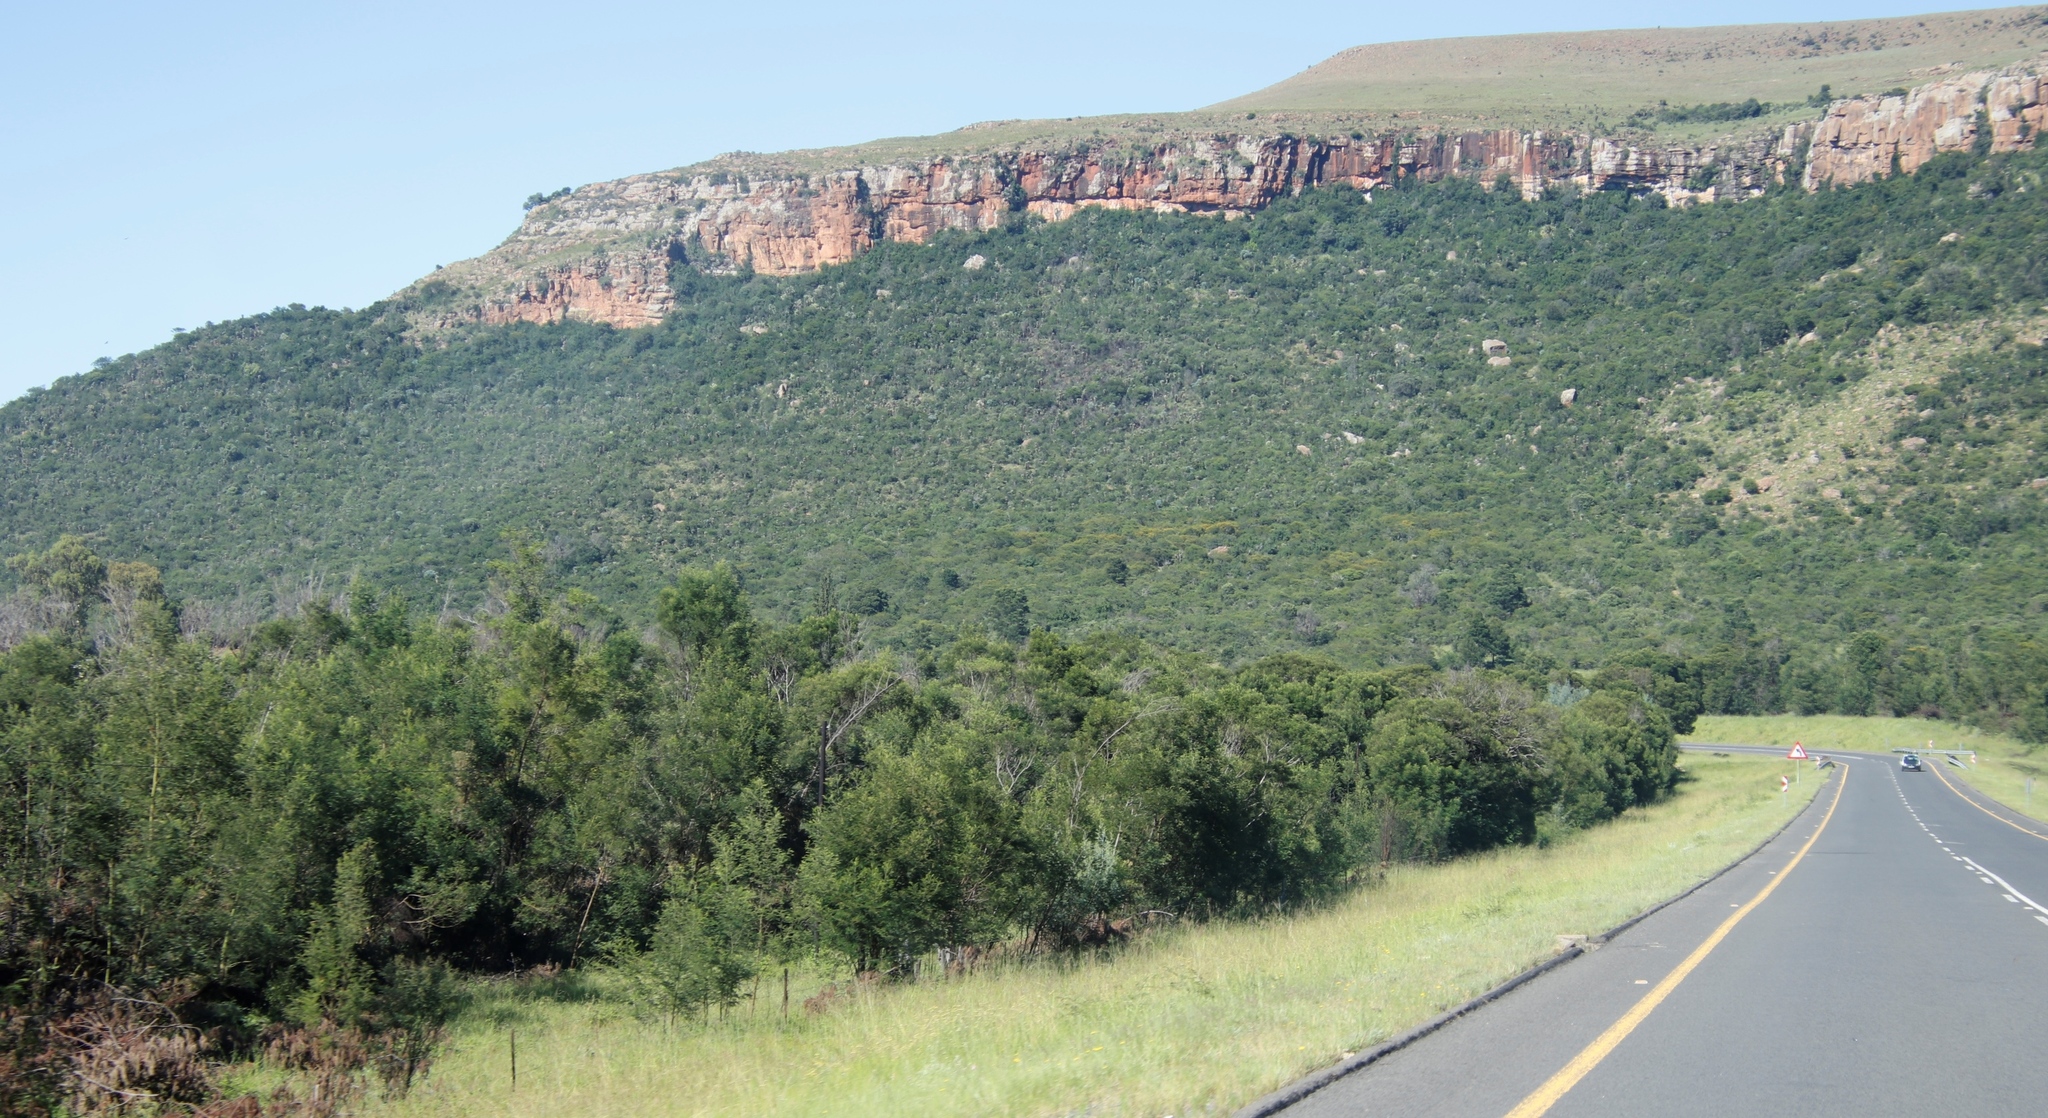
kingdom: Plantae
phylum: Tracheophyta
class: Magnoliopsida
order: Fabales
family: Fabaceae
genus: Acacia
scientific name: Acacia mearnsii
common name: Black wattle
